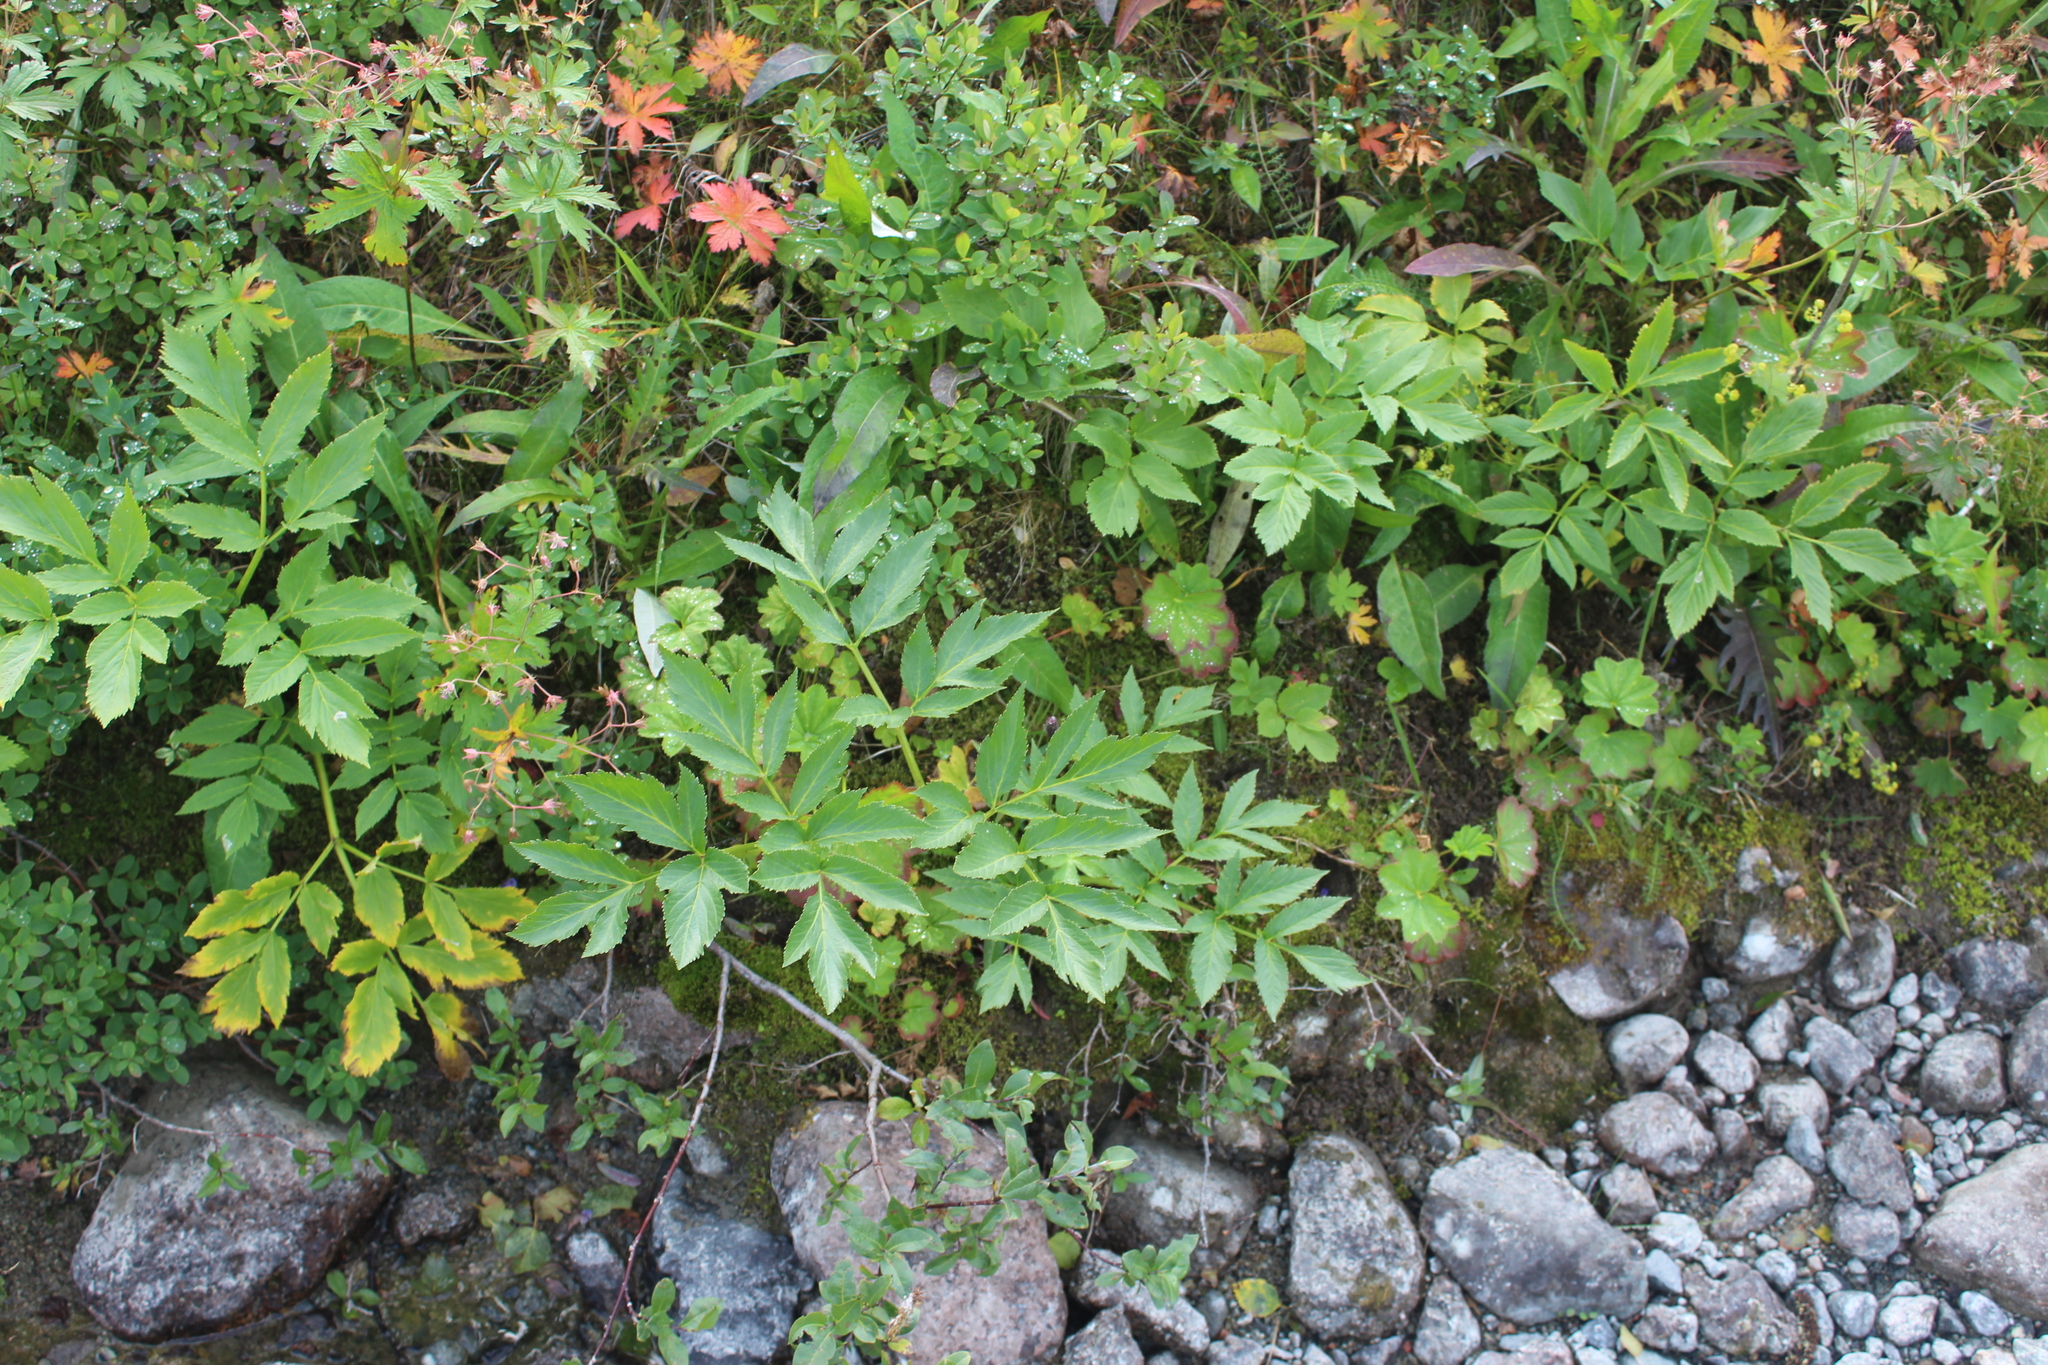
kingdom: Plantae
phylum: Tracheophyta
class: Magnoliopsida
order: Apiales
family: Apiaceae
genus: Angelica
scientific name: Angelica archangelica
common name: Garden angelica
